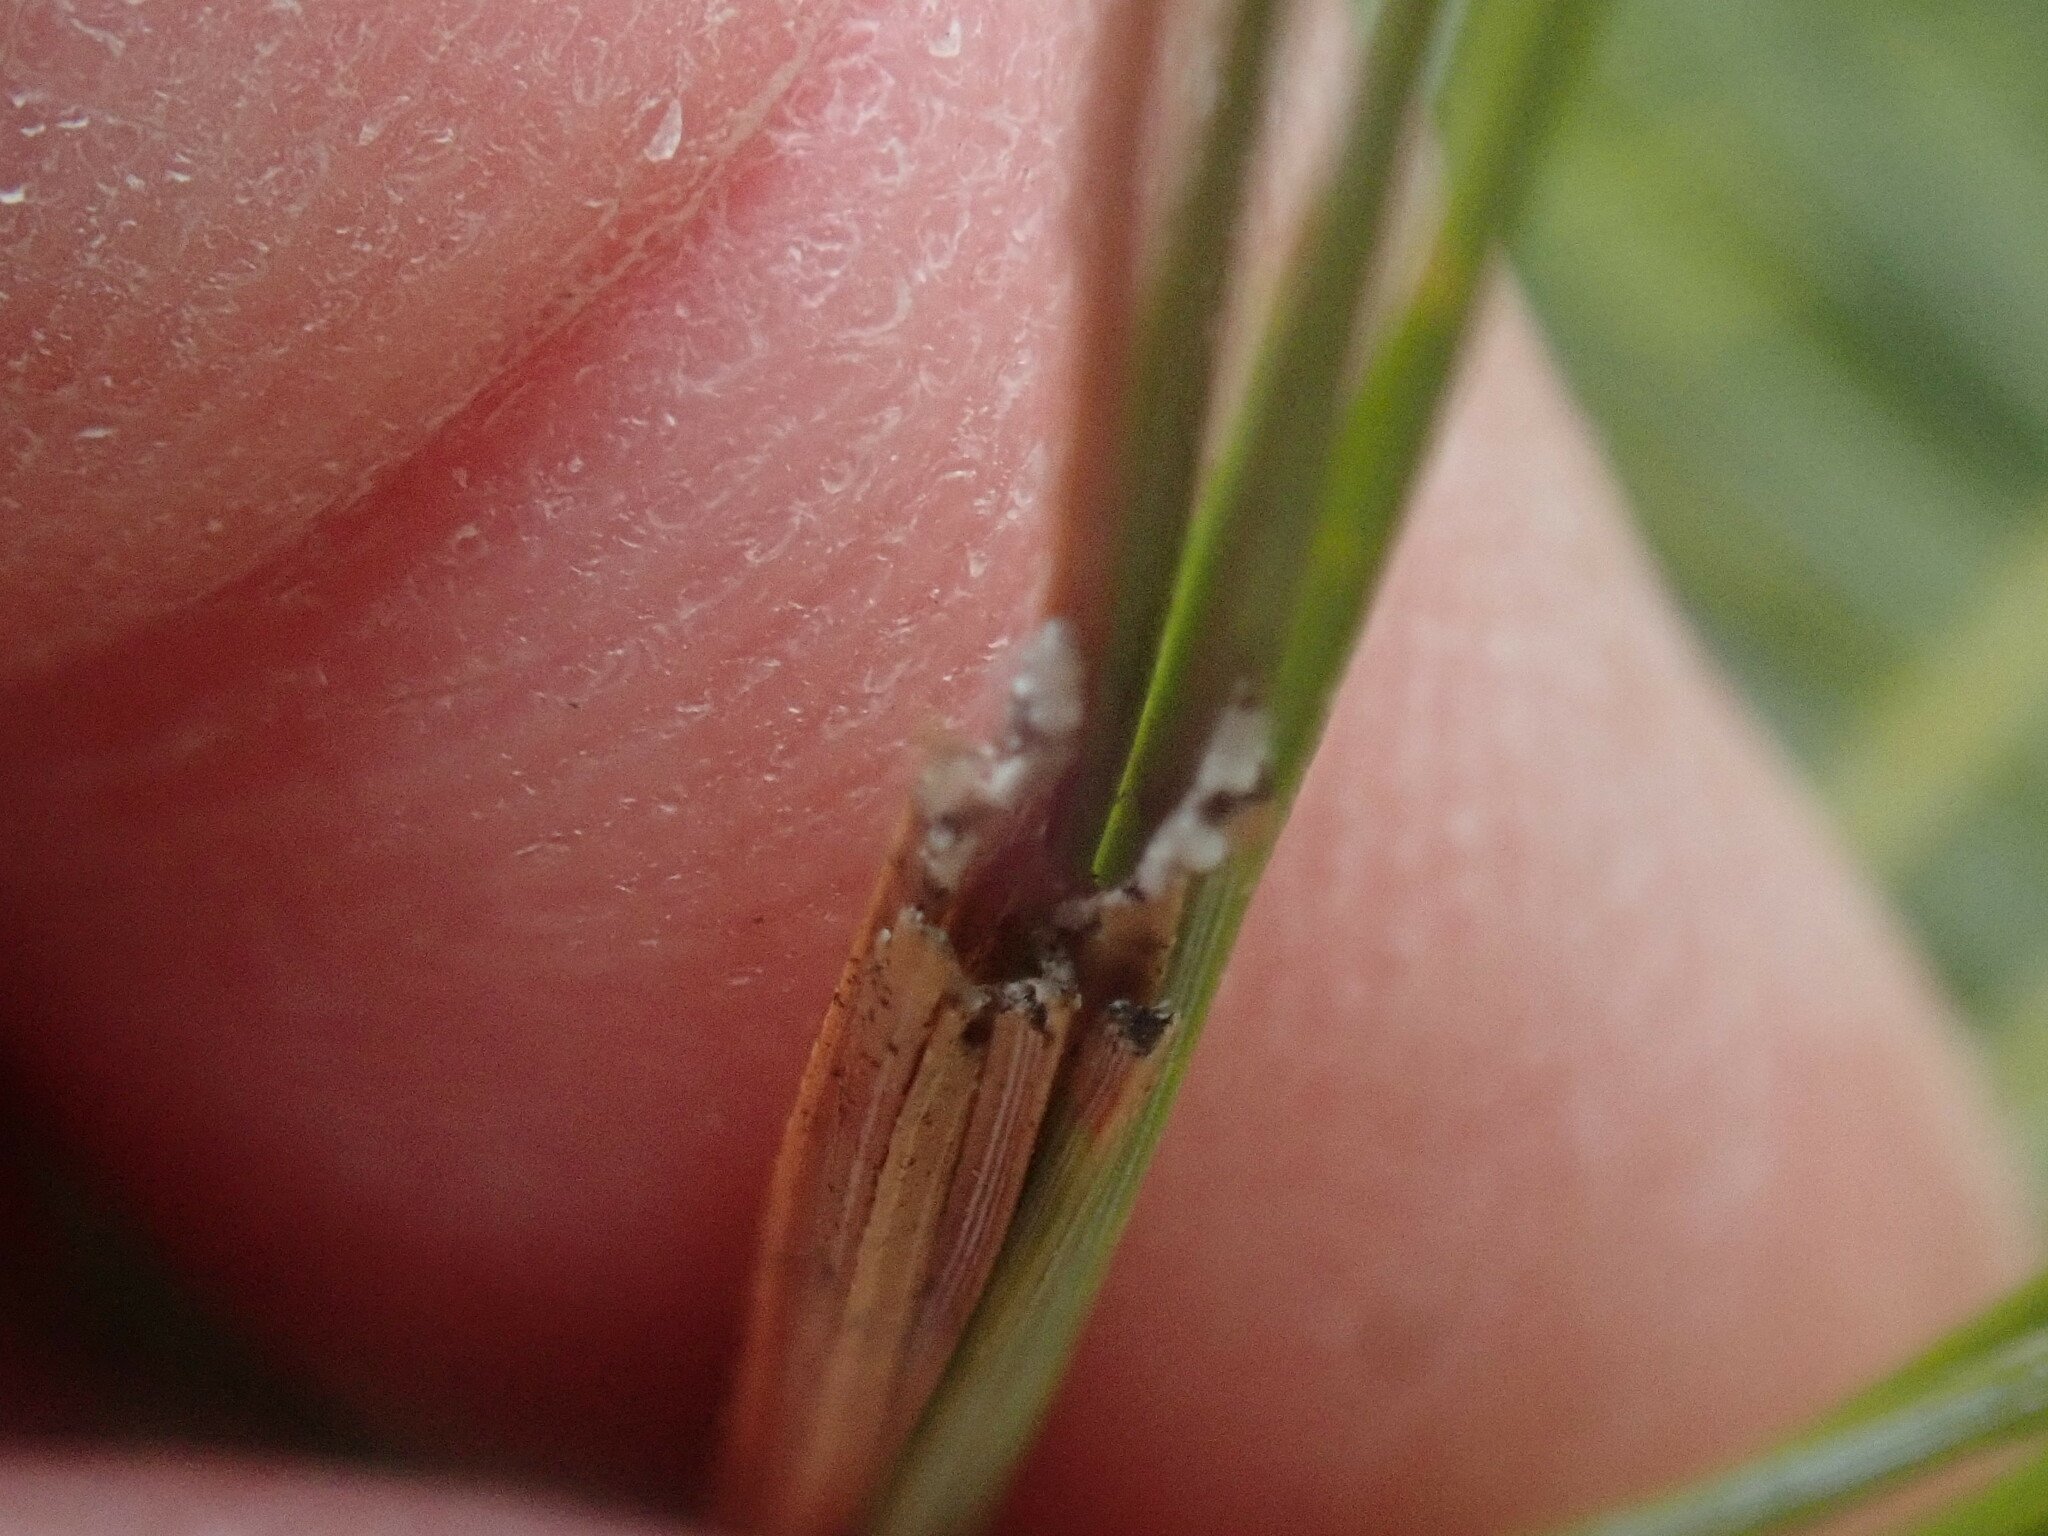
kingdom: Animalia
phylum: Arthropoda
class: Insecta
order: Lepidoptera
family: Tortricidae
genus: Argyrotaenia
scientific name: Argyrotaenia pinatubana
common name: Pine tube moth
